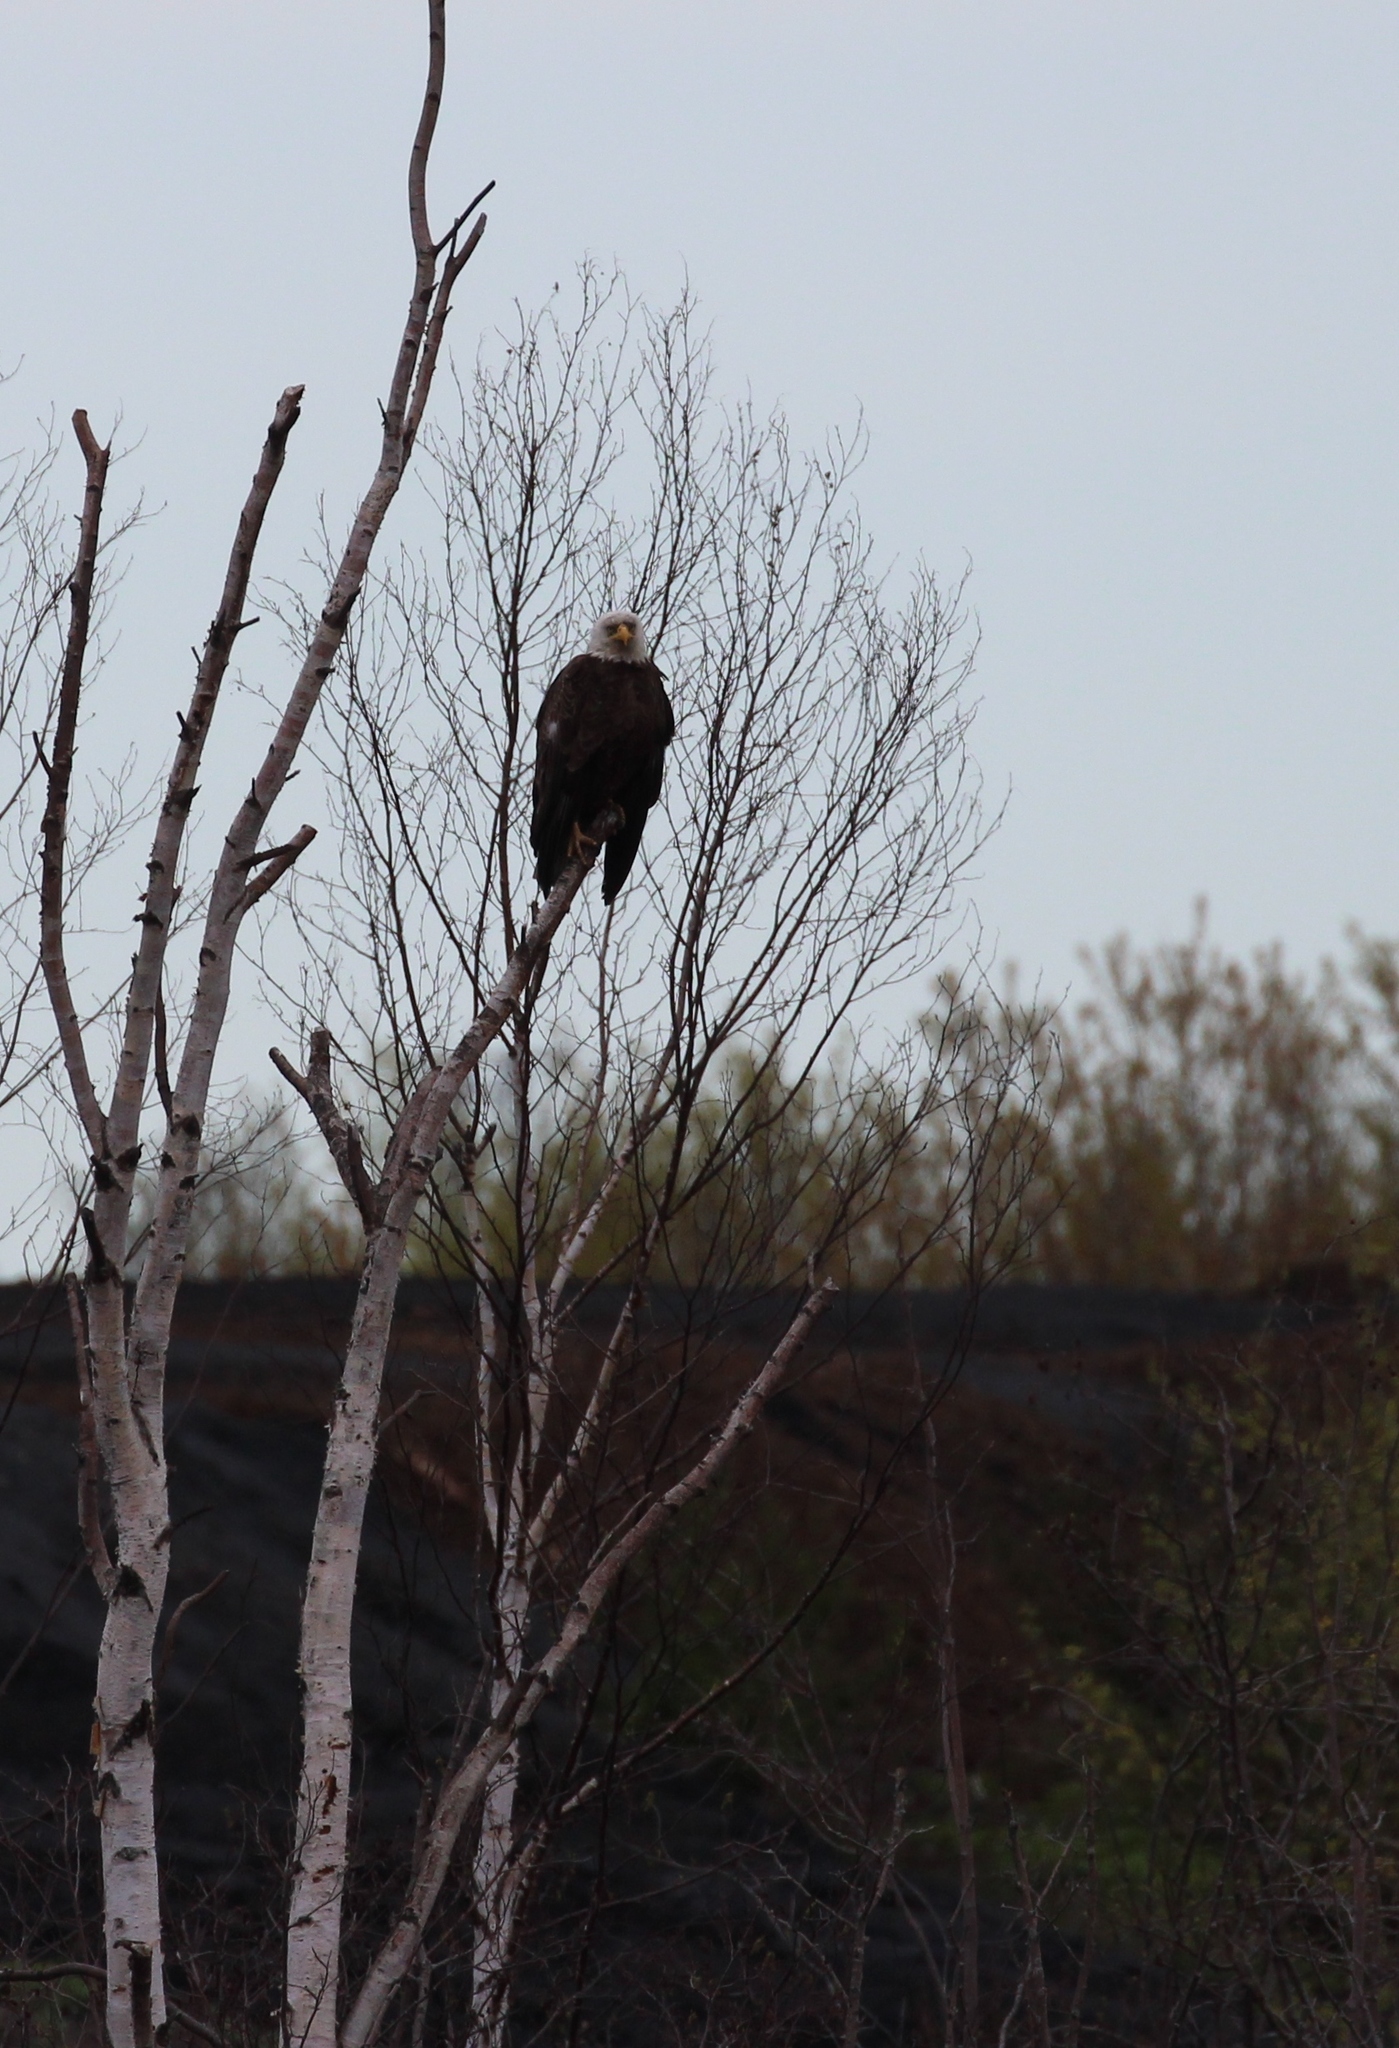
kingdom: Animalia
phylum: Chordata
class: Aves
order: Accipitriformes
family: Accipitridae
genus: Haliaeetus
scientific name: Haliaeetus leucocephalus
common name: Bald eagle
